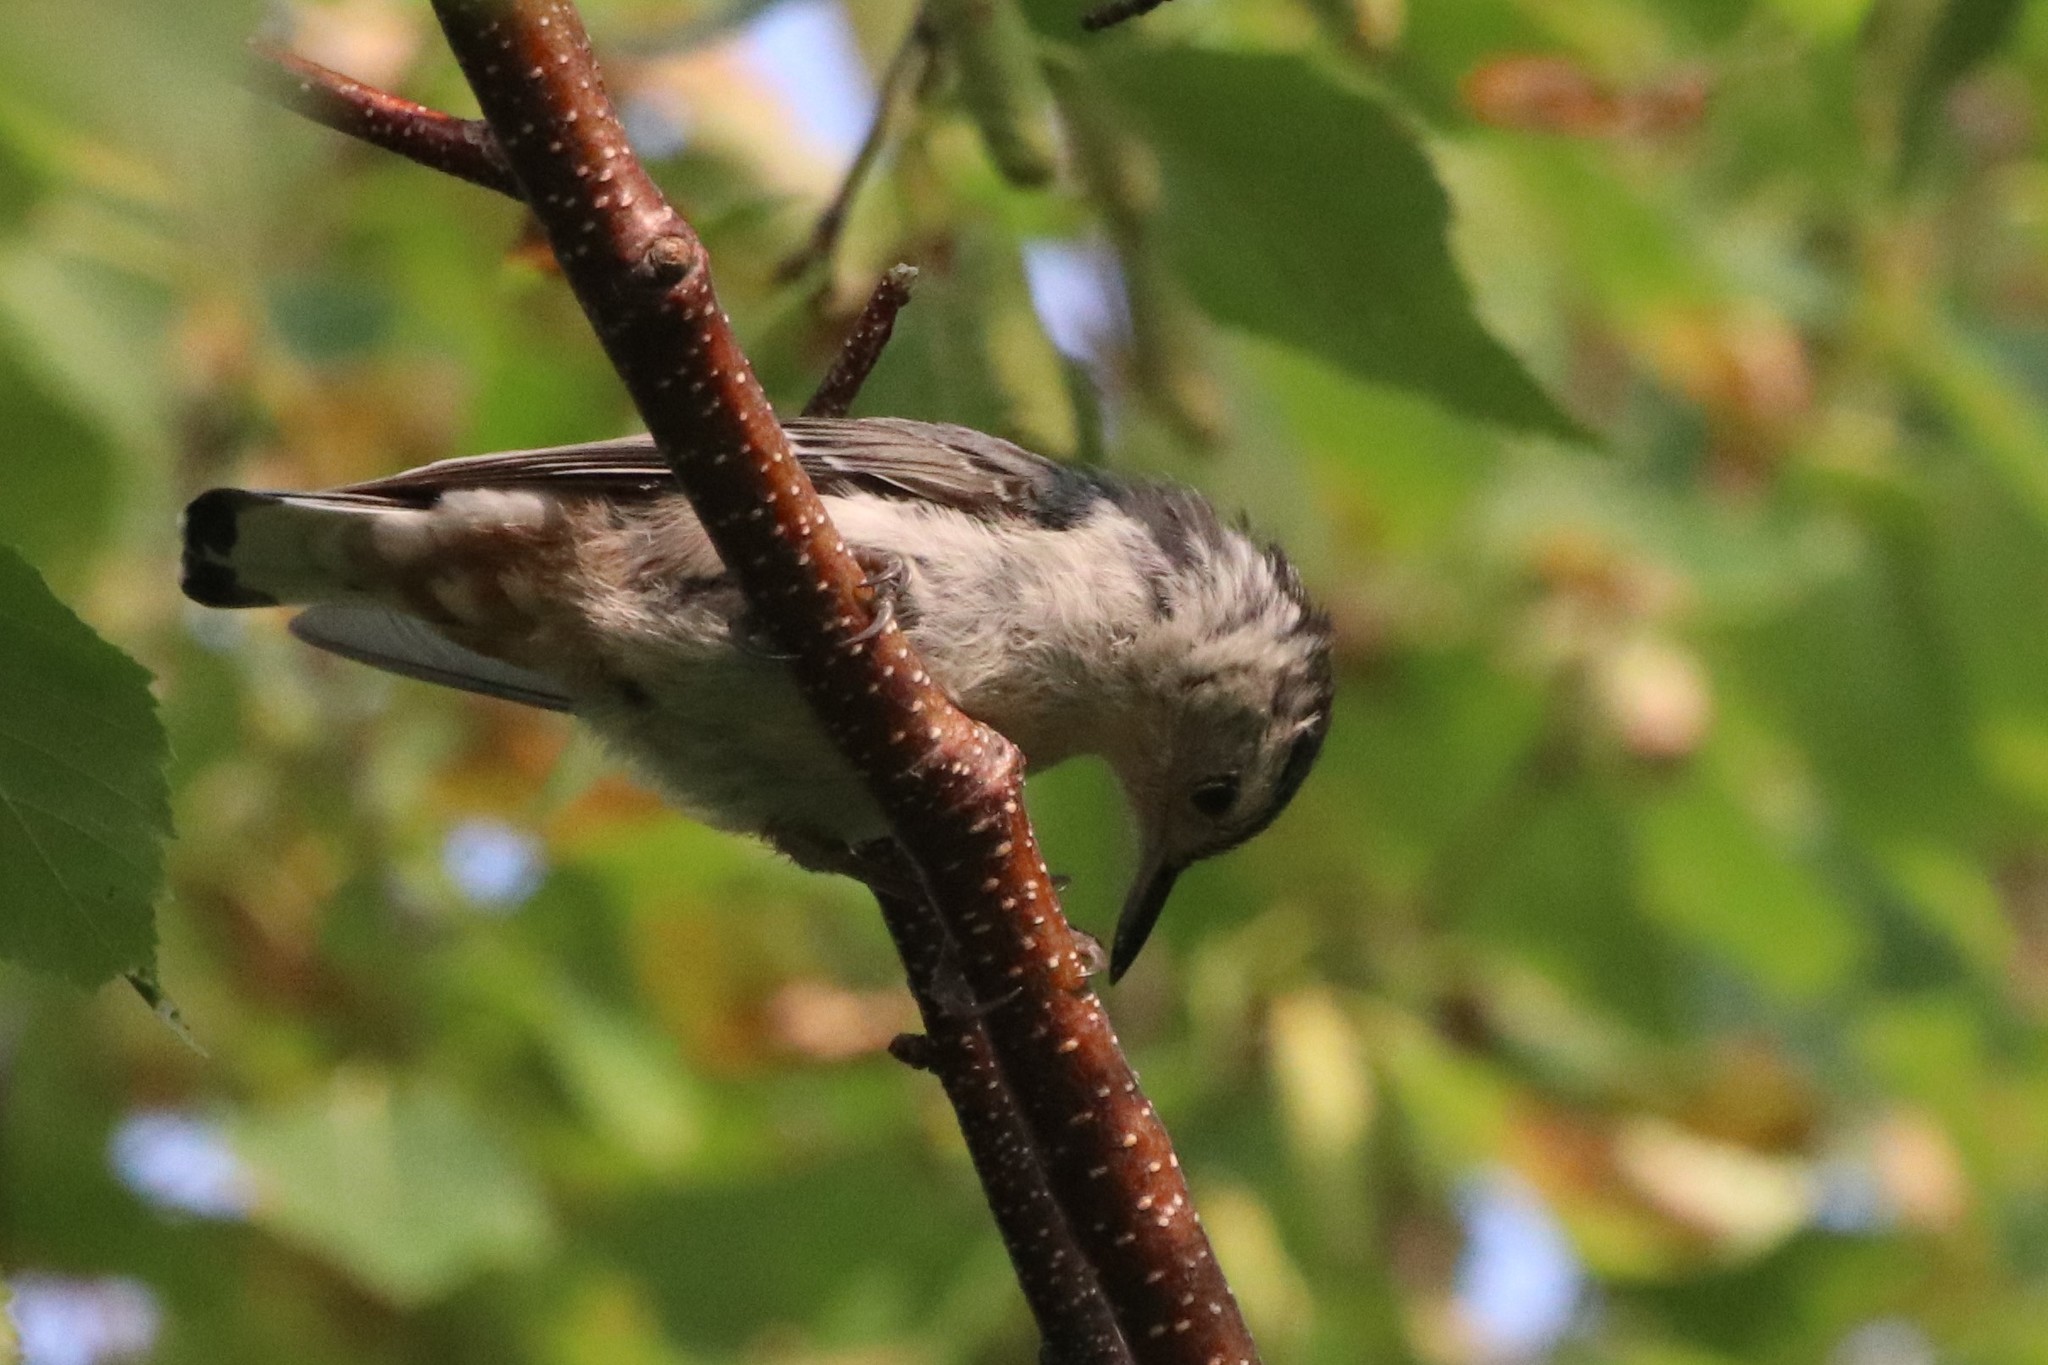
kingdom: Animalia
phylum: Chordata
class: Aves
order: Passeriformes
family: Sittidae
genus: Sitta
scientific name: Sitta carolinensis
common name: White-breasted nuthatch
